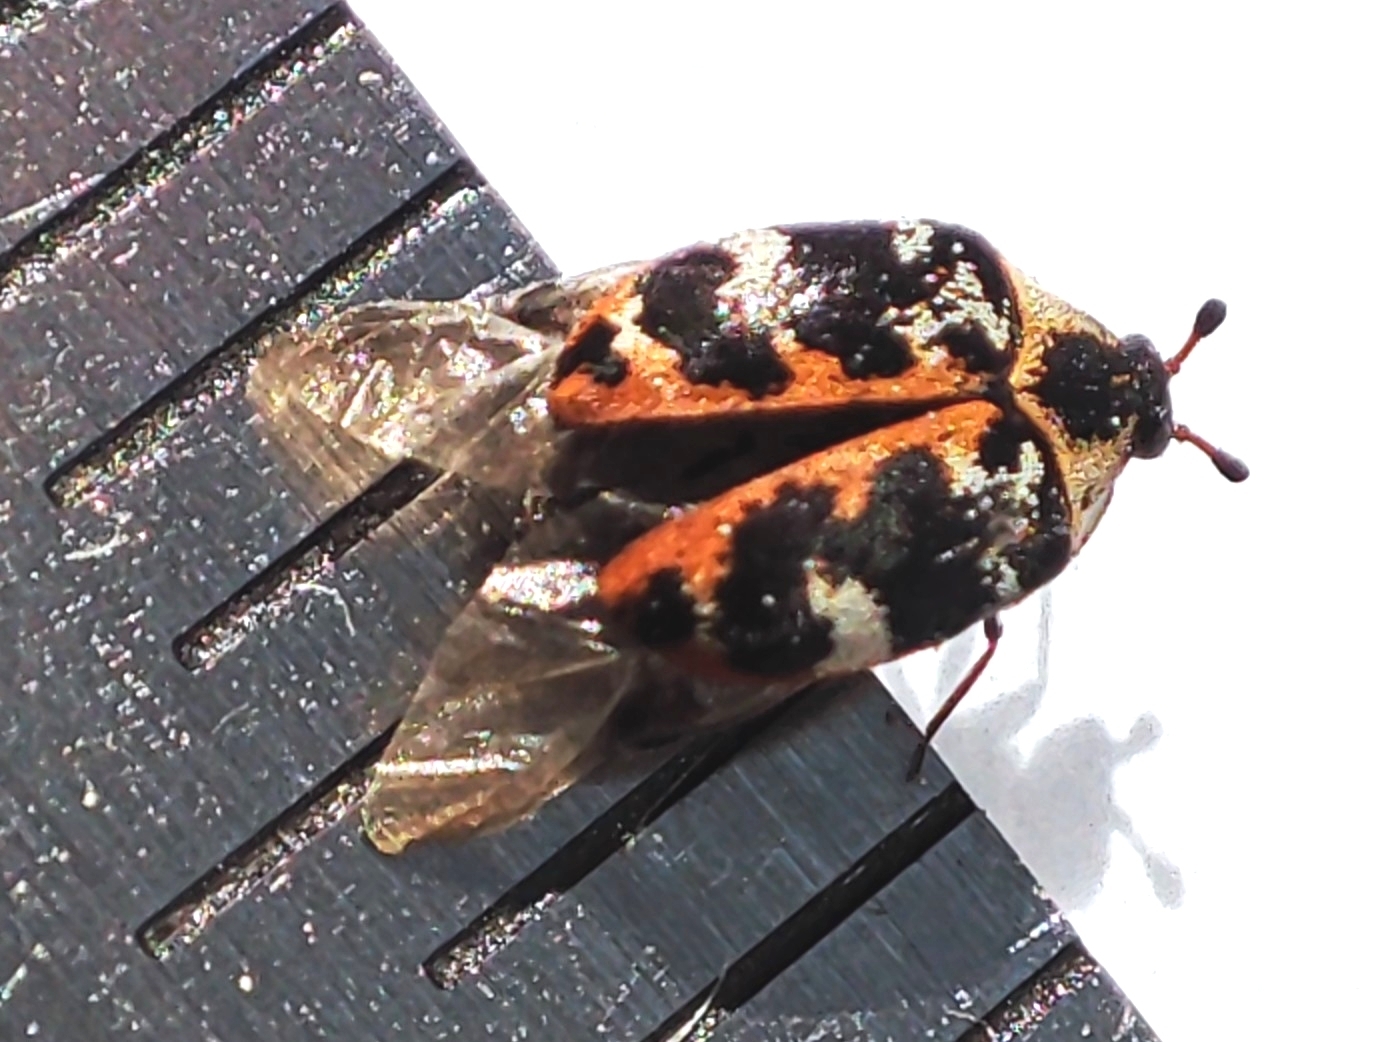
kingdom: Animalia
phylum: Arthropoda
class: Insecta
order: Coleoptera
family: Dermestidae
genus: Anthrenus
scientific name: Anthrenus scrophulariae
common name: Buffalo carpet beetle
